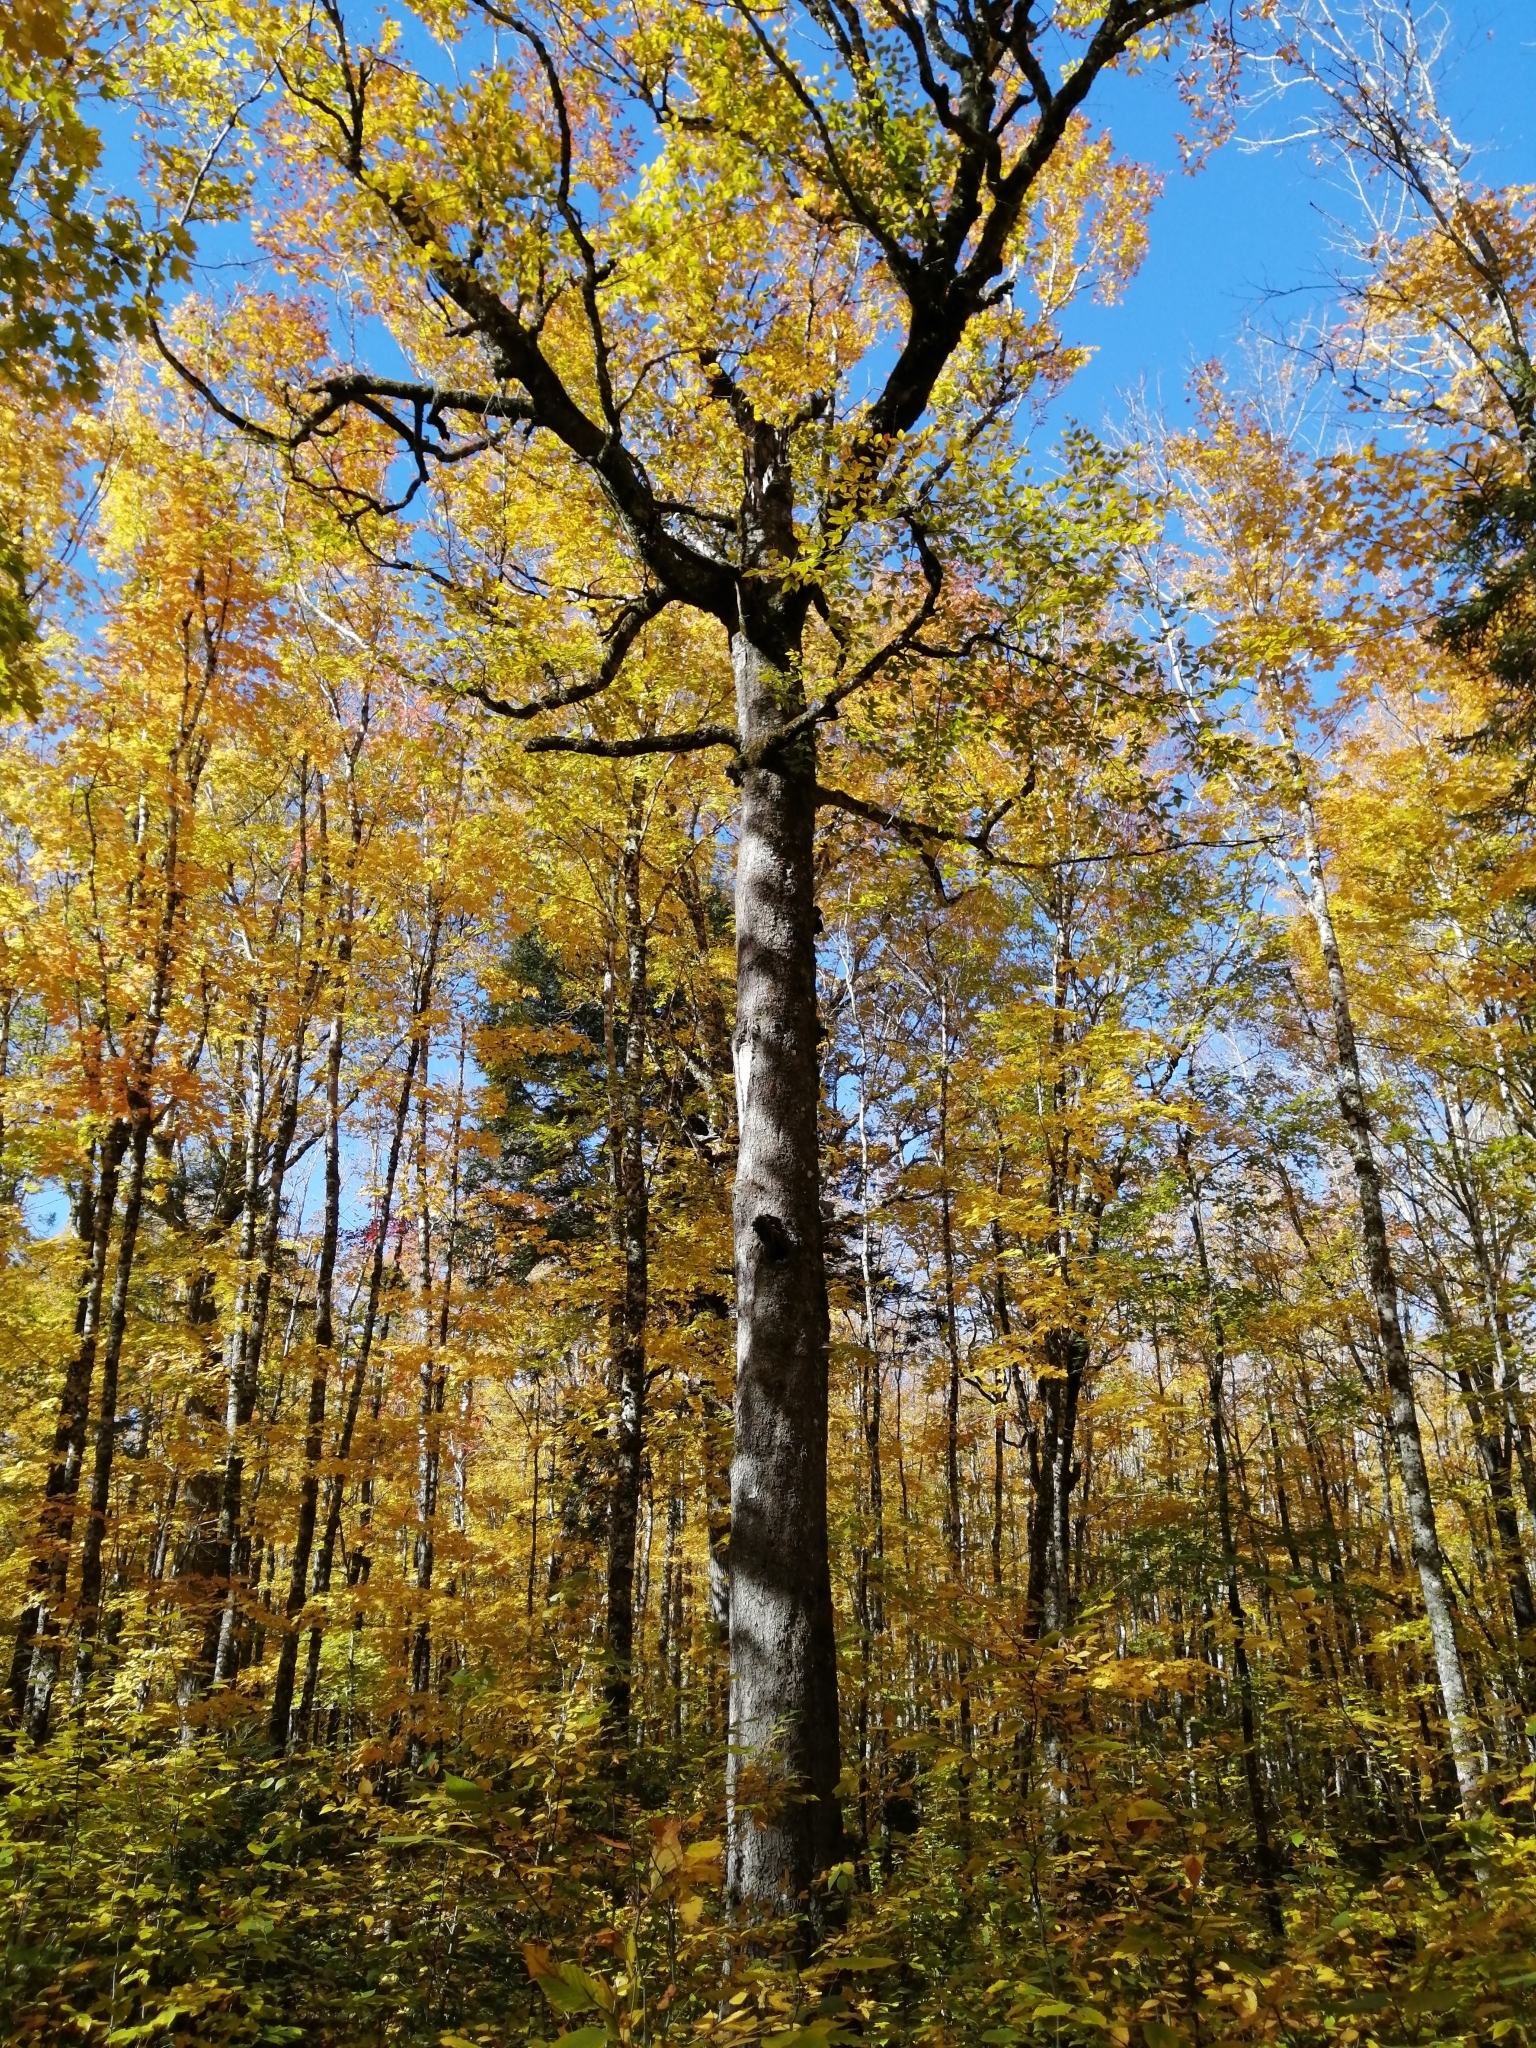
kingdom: Plantae
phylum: Tracheophyta
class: Magnoliopsida
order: Fagales
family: Fagaceae
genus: Fagus
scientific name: Fagus grandifolia
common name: American beech
